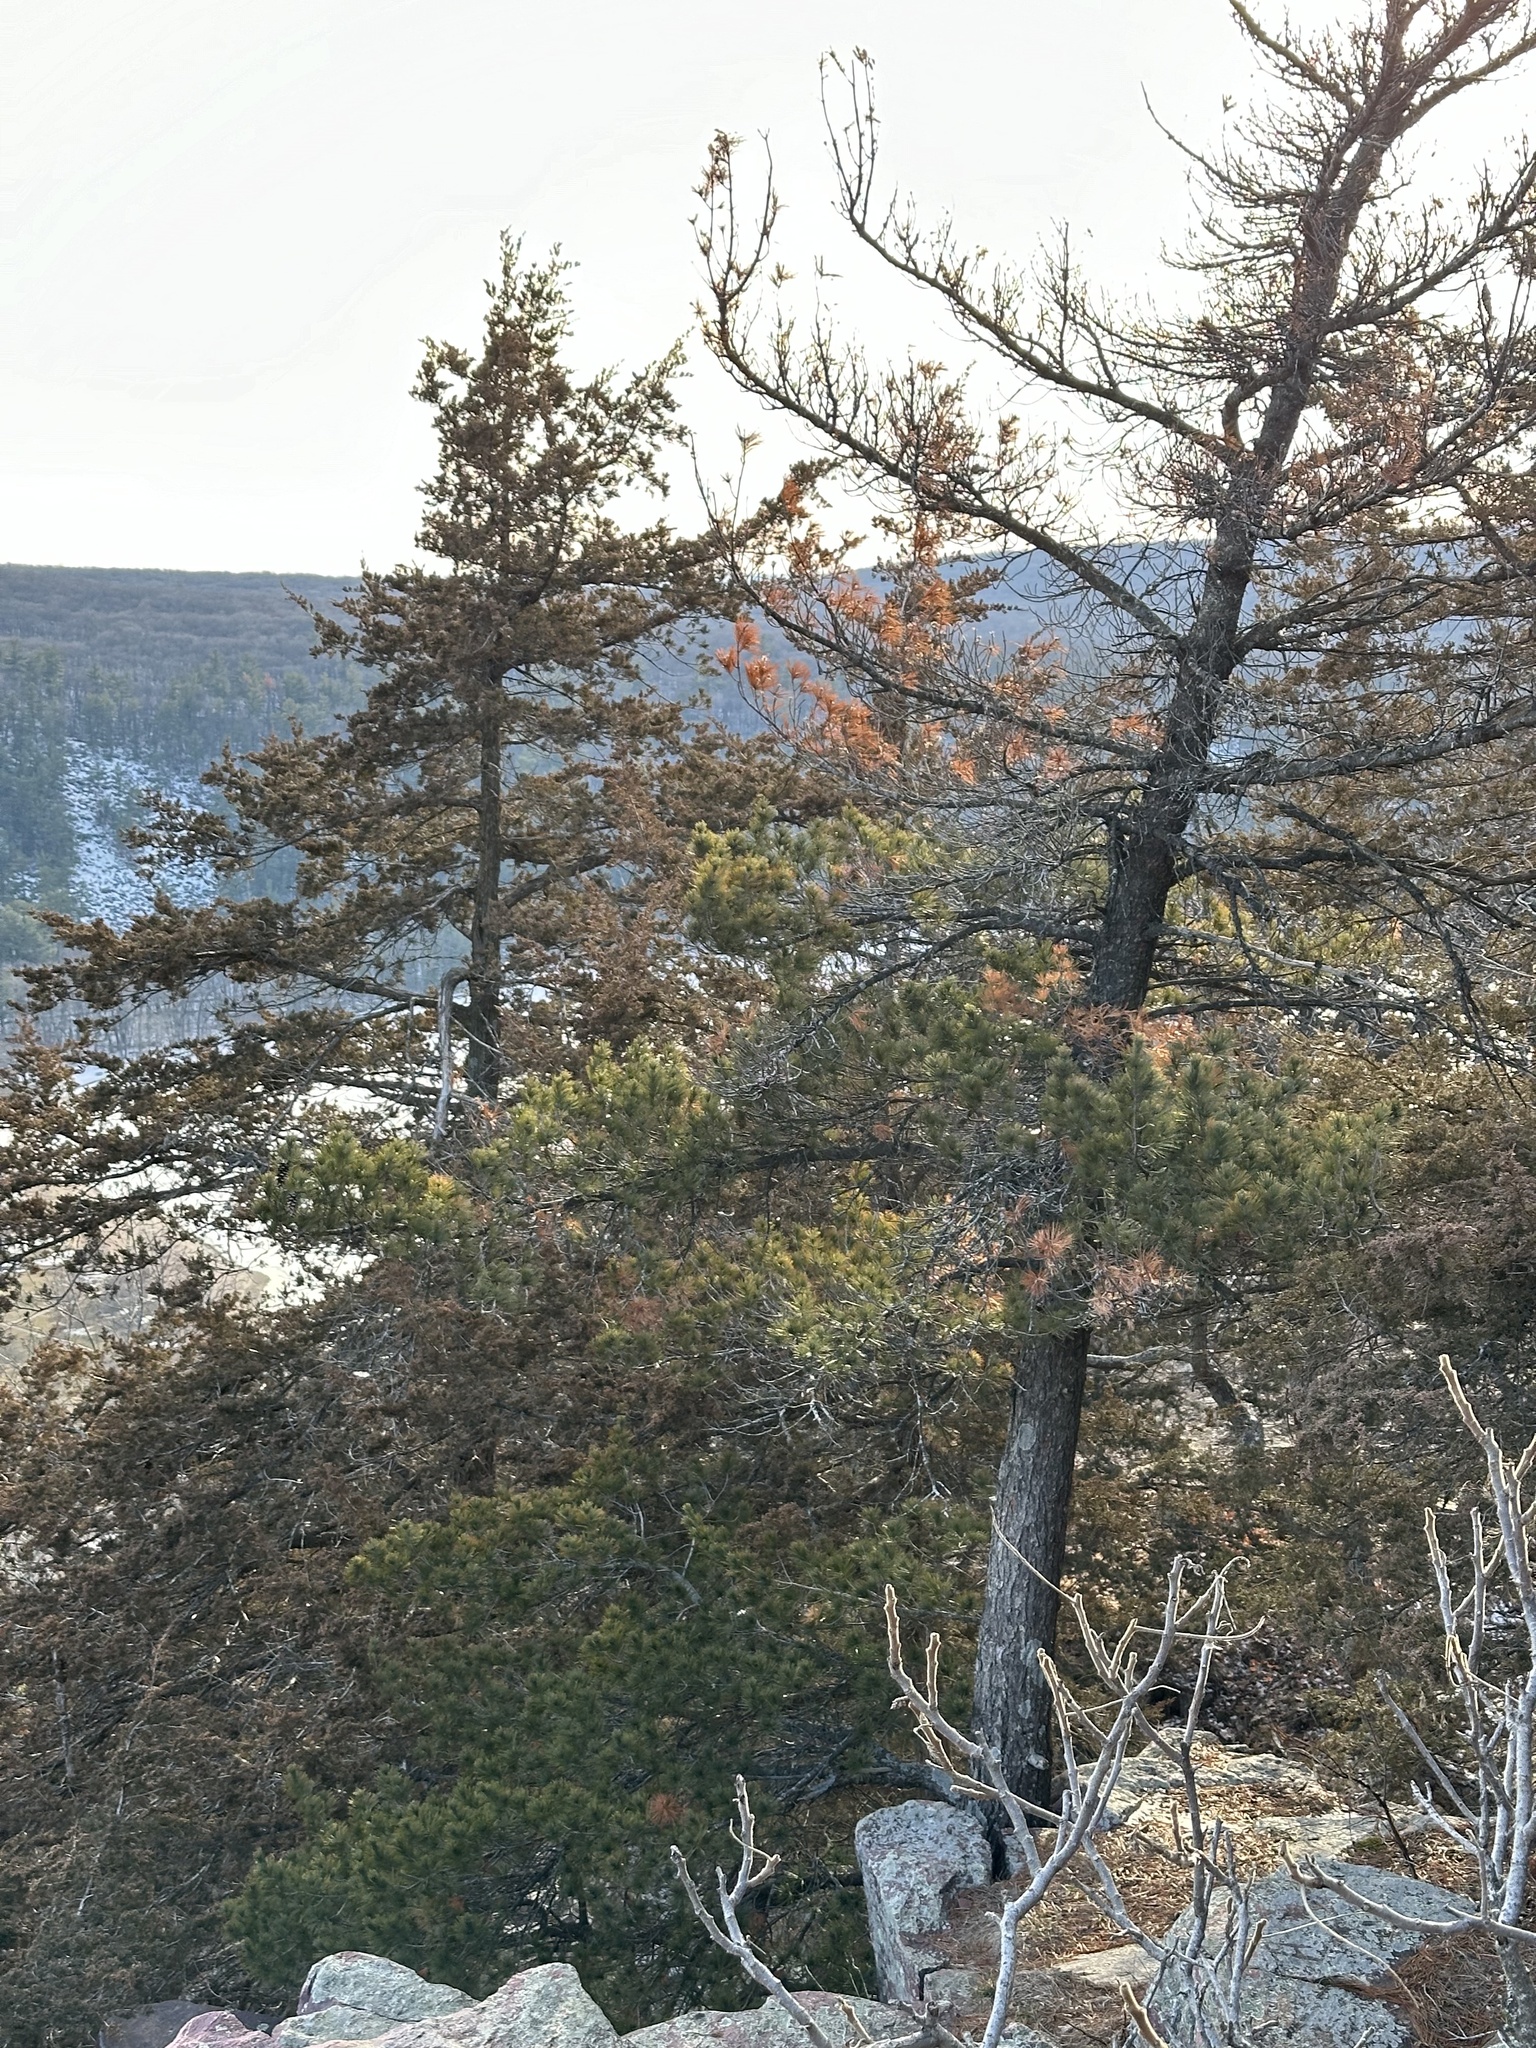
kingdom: Plantae
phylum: Tracheophyta
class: Pinopsida
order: Pinales
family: Pinaceae
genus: Pinus
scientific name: Pinus strobus
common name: Weymouth pine
